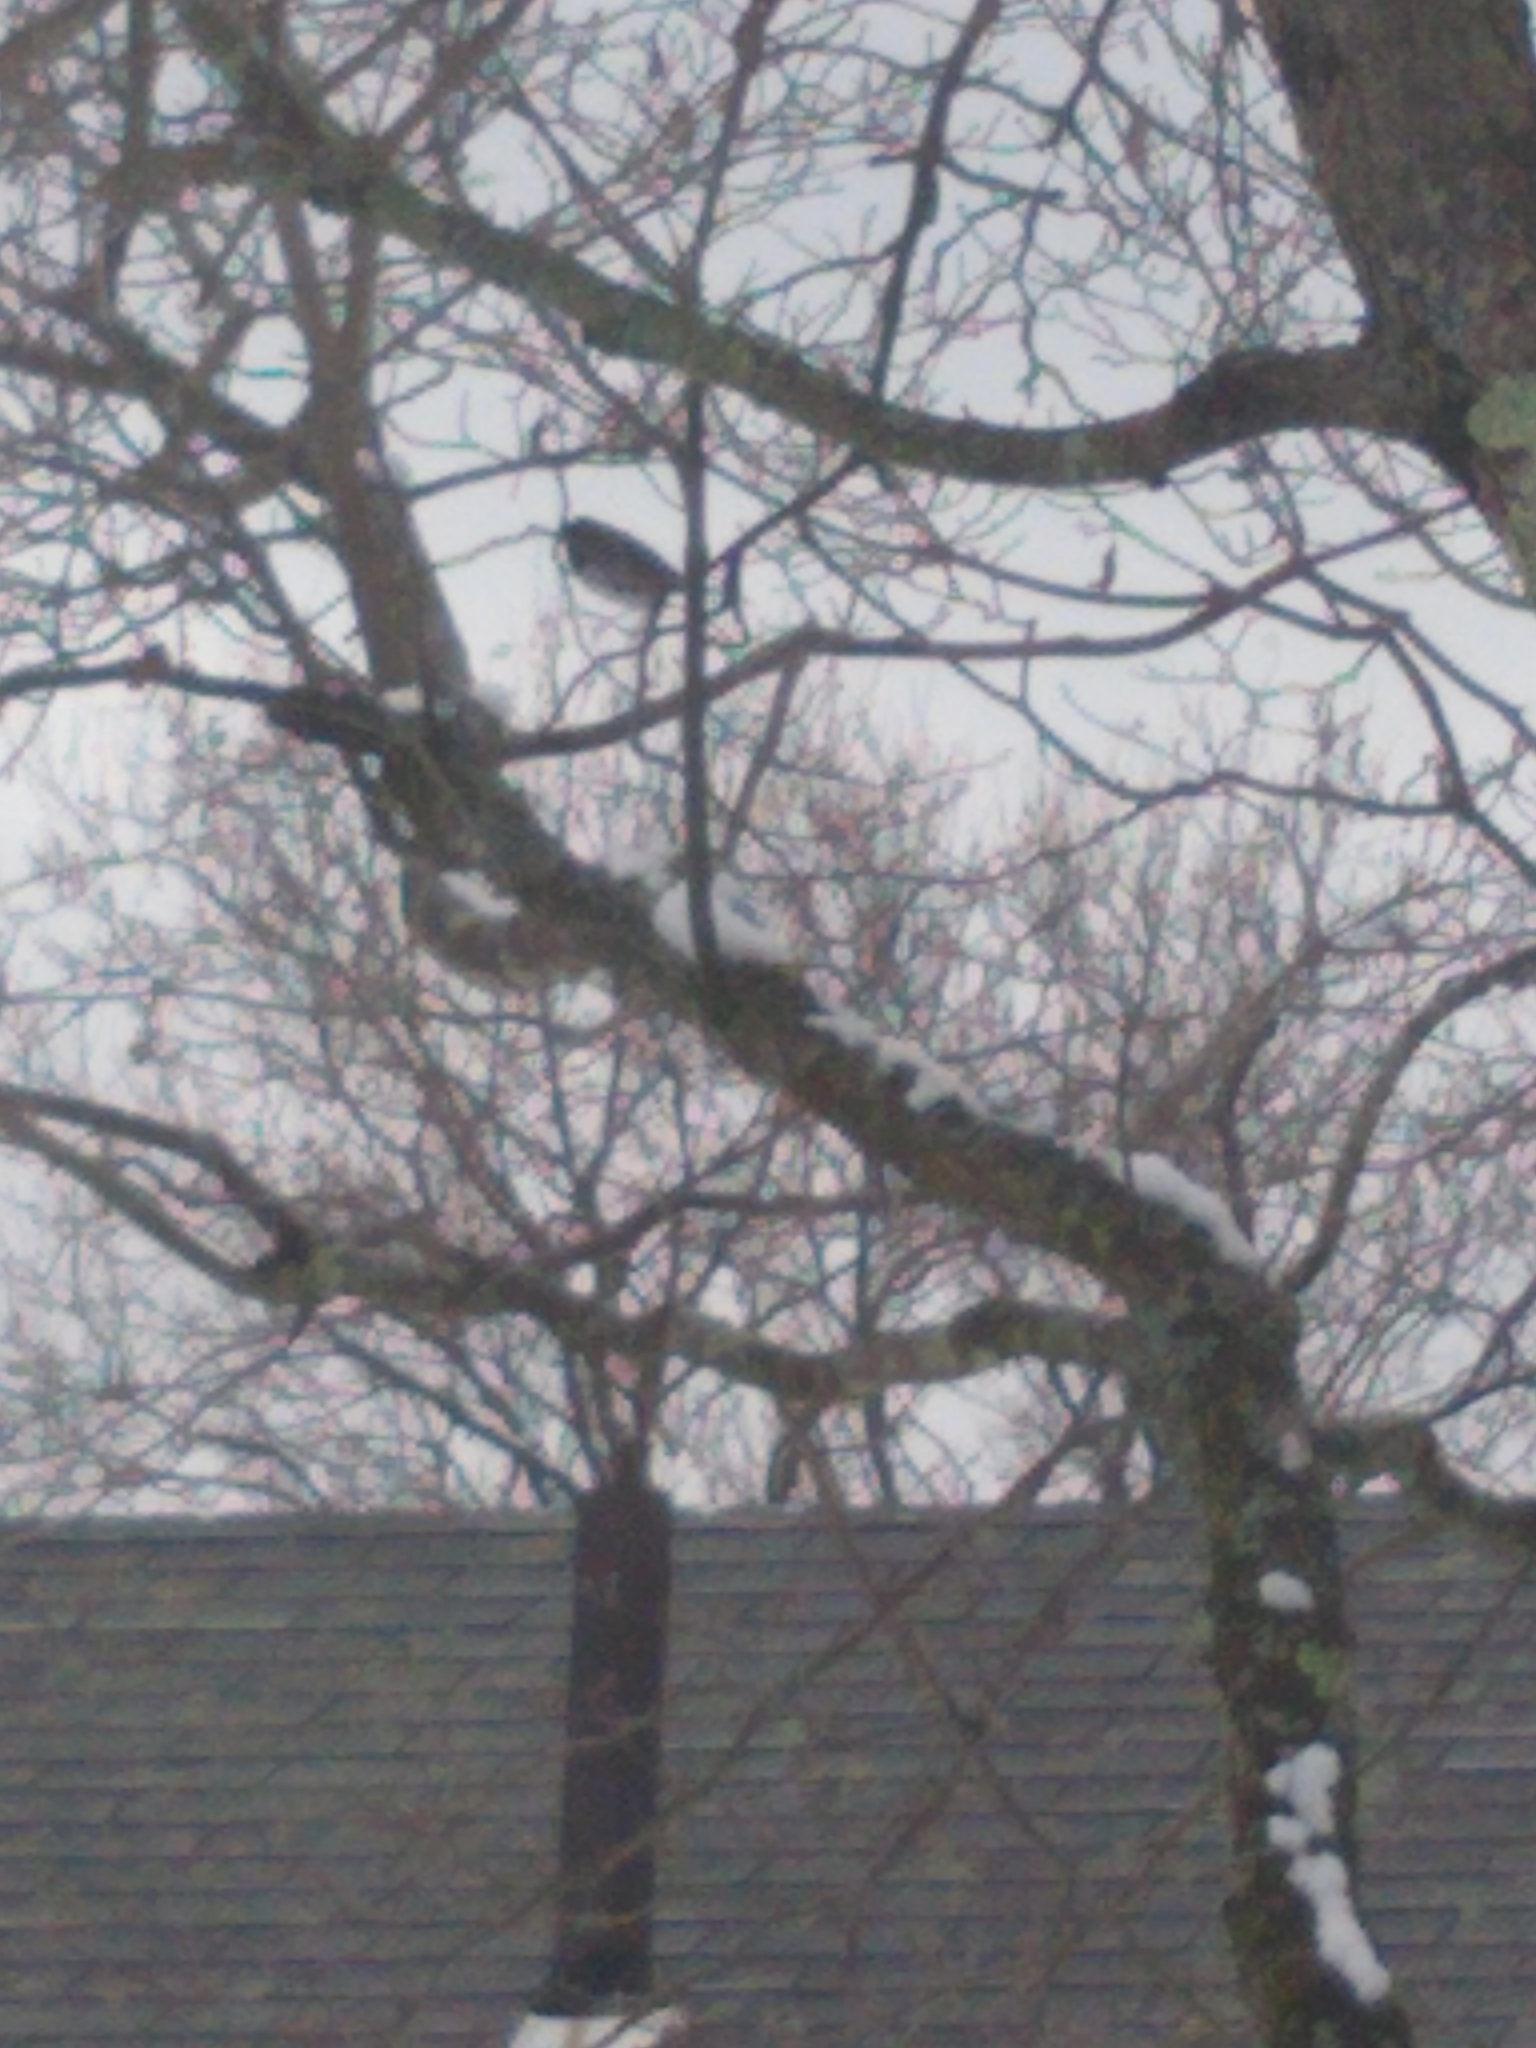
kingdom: Animalia
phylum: Chordata
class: Aves
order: Passeriformes
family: Passerellidae
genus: Junco
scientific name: Junco hyemalis
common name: Dark-eyed junco
